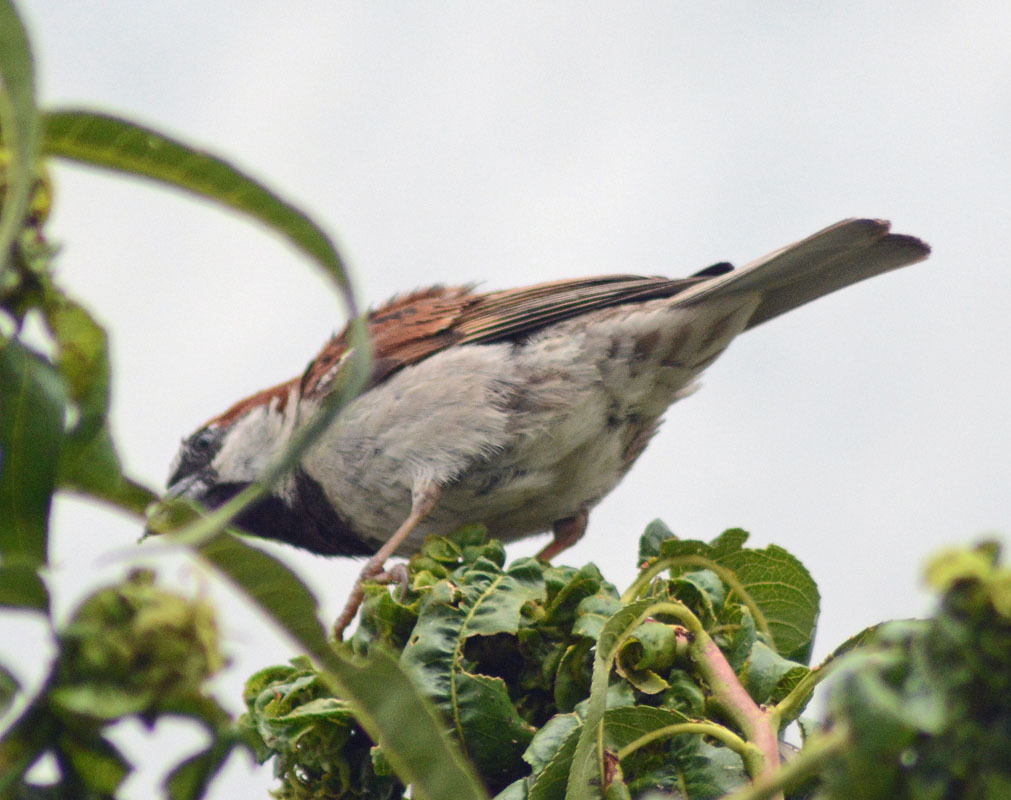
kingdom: Animalia
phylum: Chordata
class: Aves
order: Passeriformes
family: Passeridae
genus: Passer
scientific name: Passer domesticus
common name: House sparrow
